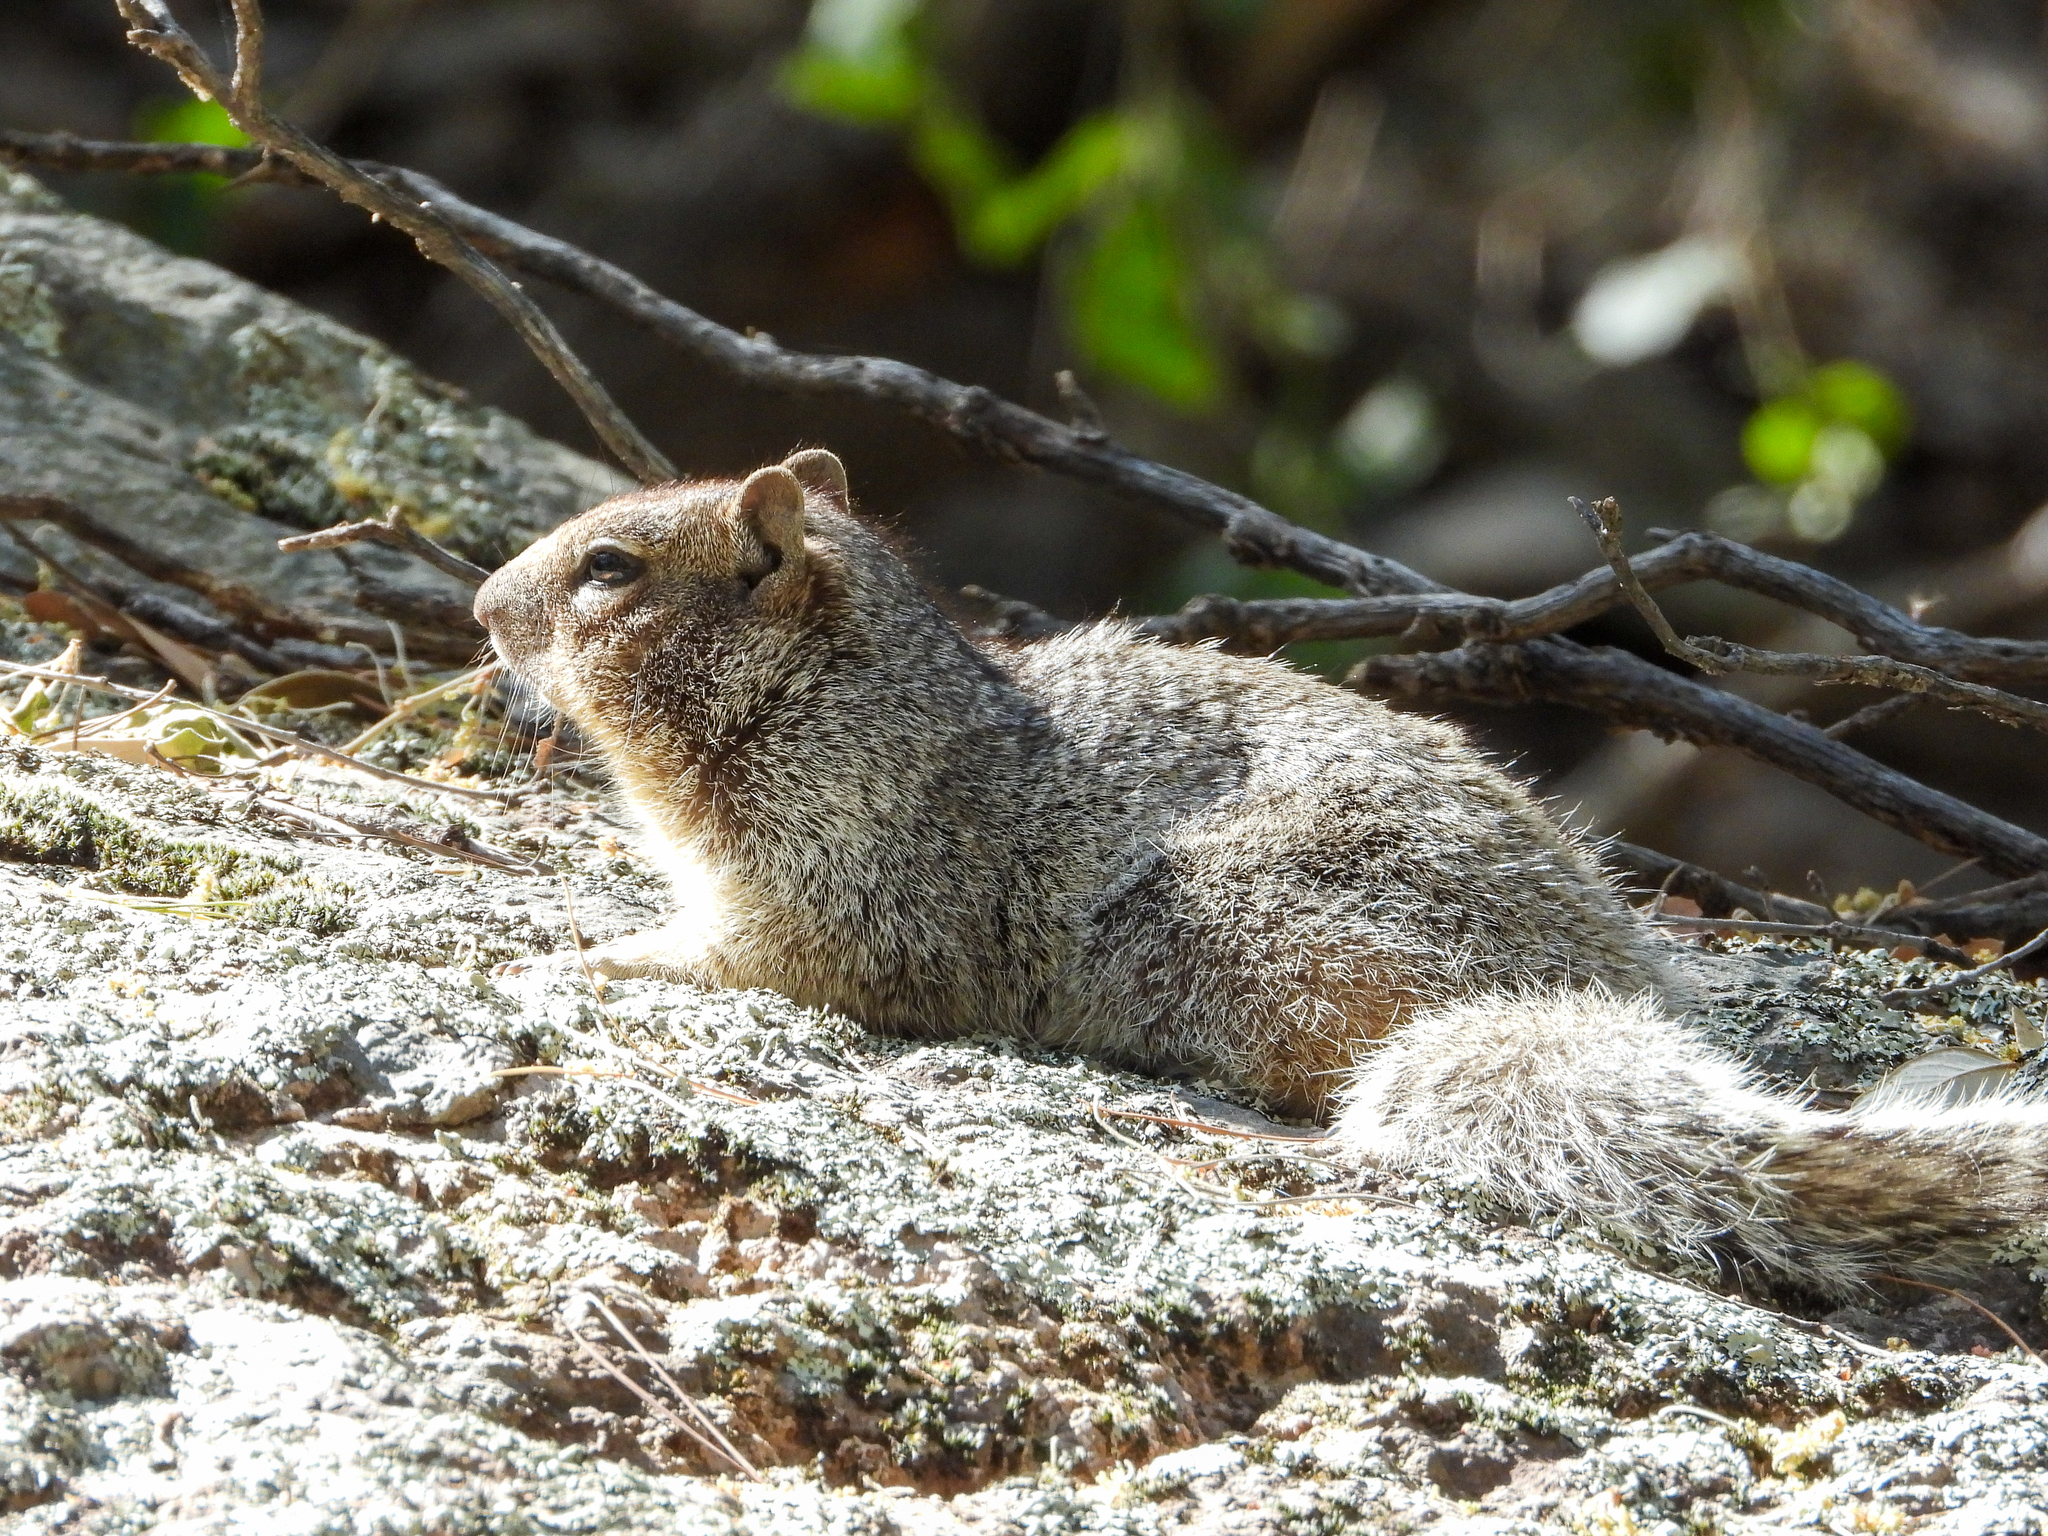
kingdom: Animalia
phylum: Chordata
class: Mammalia
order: Rodentia
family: Sciuridae
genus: Otospermophilus
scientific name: Otospermophilus variegatus
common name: Rock squirrel
